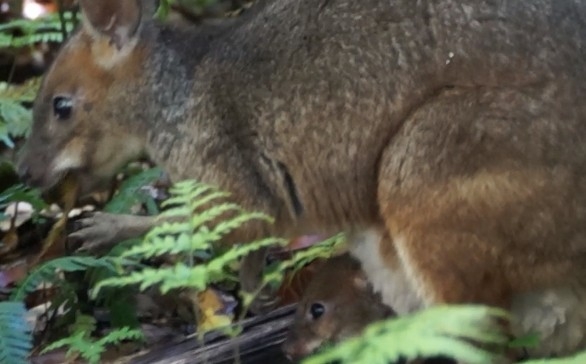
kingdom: Animalia
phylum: Chordata
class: Mammalia
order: Diprotodontia
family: Macropodidae
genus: Thylogale
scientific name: Thylogale stigmatica
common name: Red-legged pademelon
